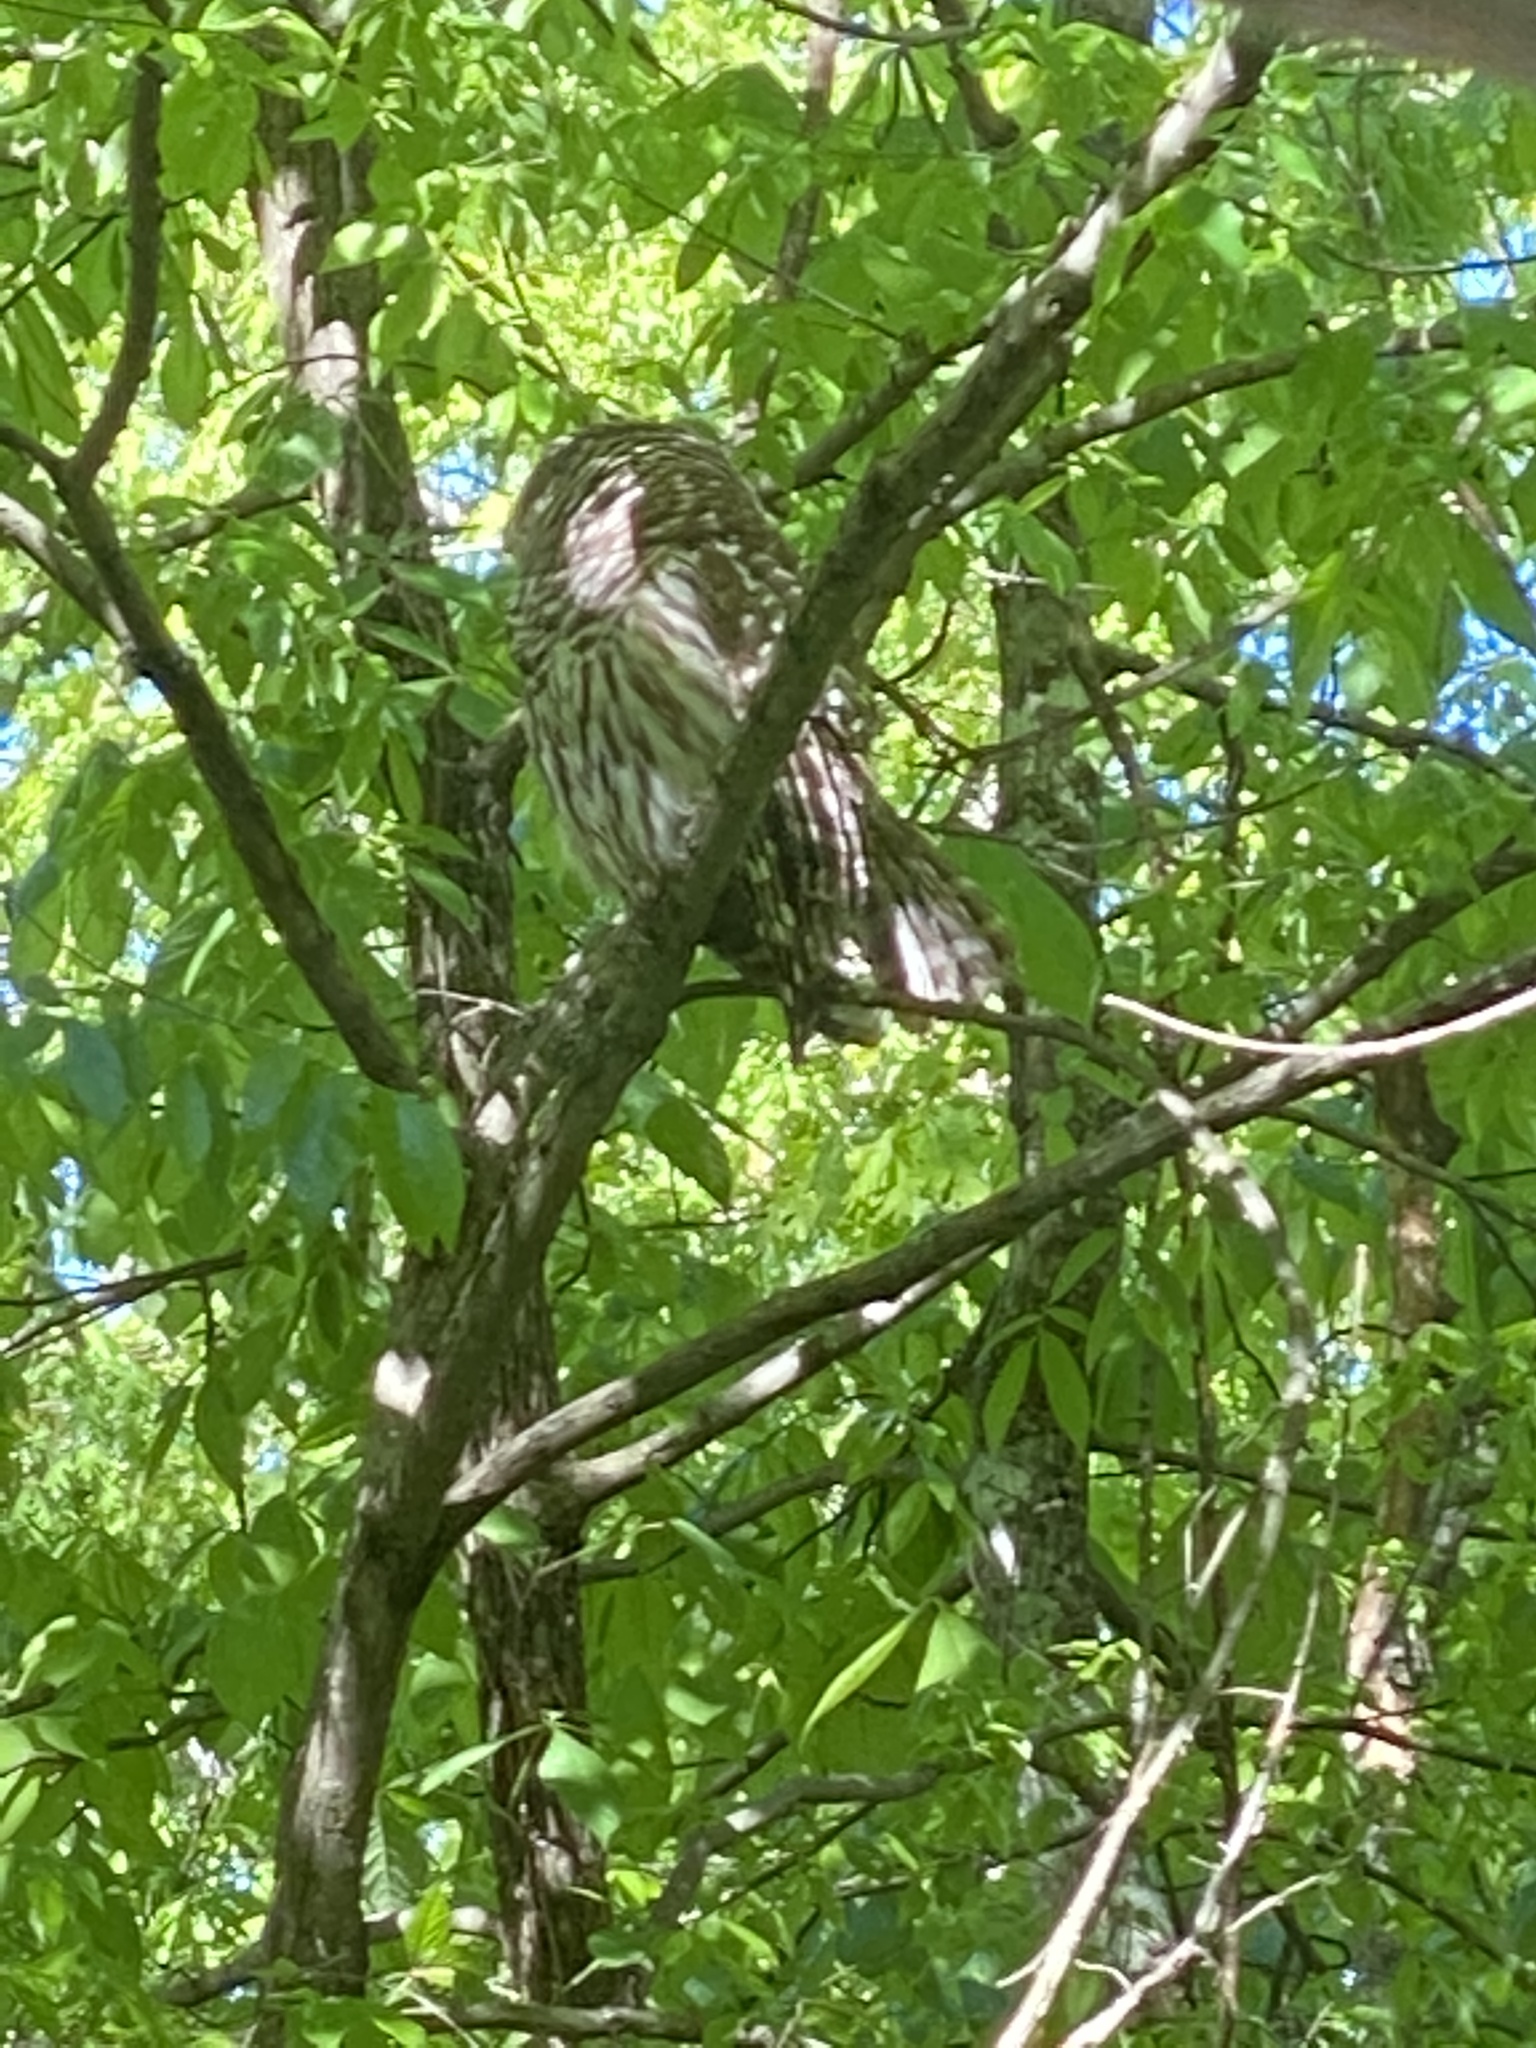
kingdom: Animalia
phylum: Chordata
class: Aves
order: Strigiformes
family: Strigidae
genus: Strix
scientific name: Strix varia
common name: Barred owl
